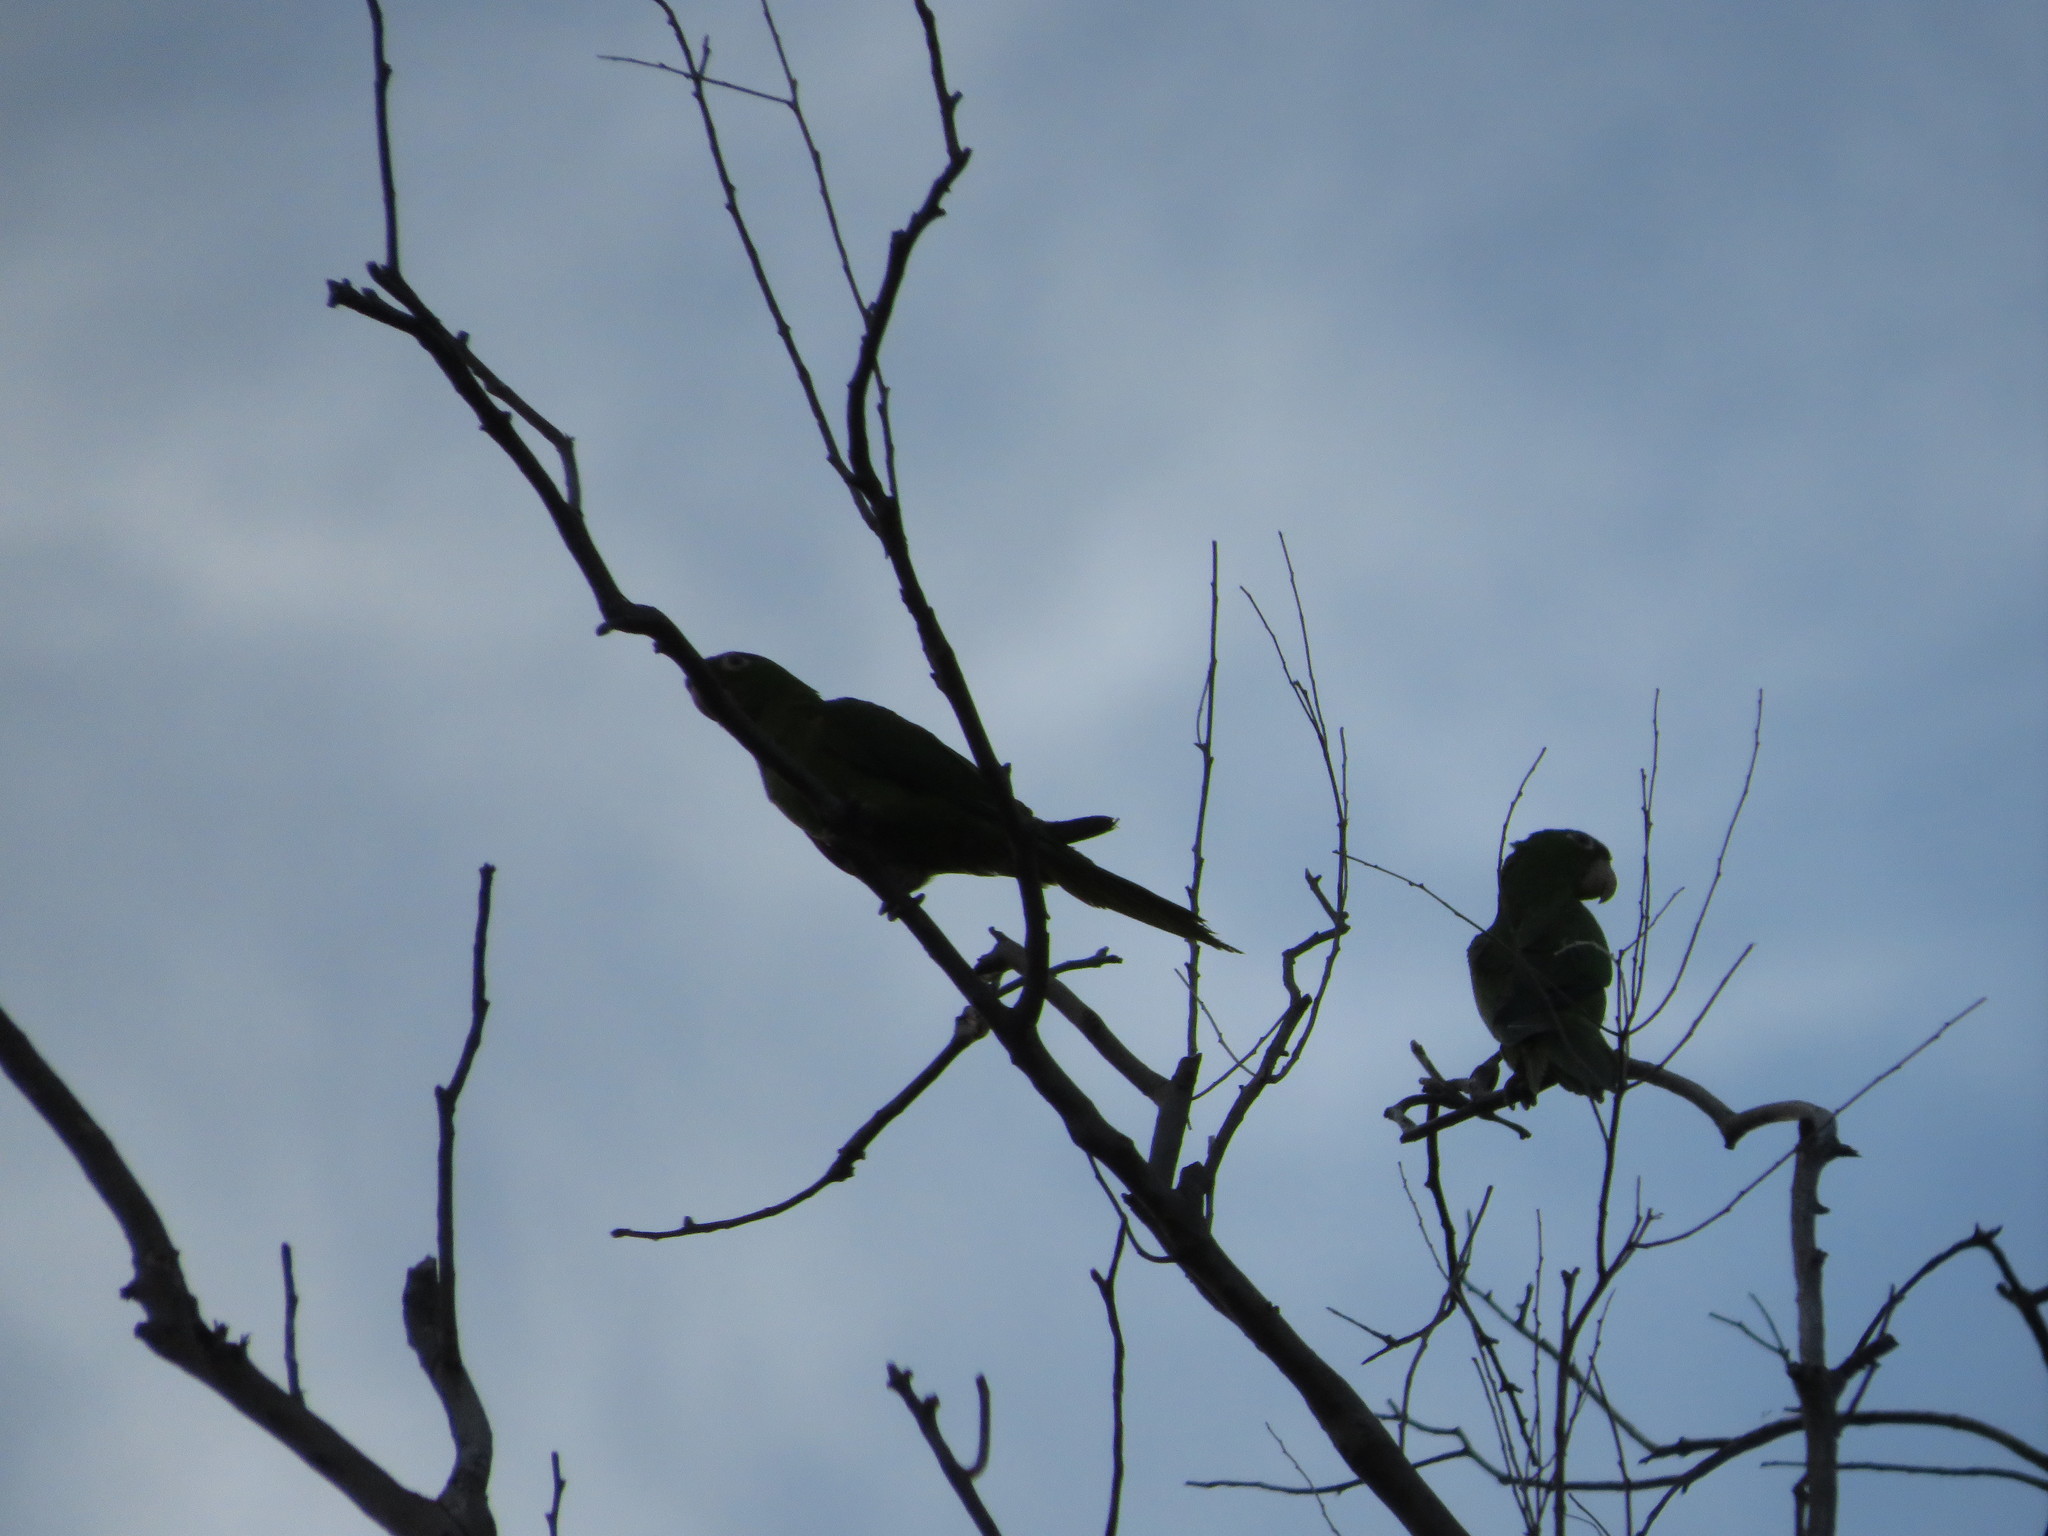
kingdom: Animalia
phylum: Chordata
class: Aves
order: Psittaciformes
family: Psittacidae
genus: Aratinga
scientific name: Aratinga leucophthalma
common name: White-eyed parakeet
